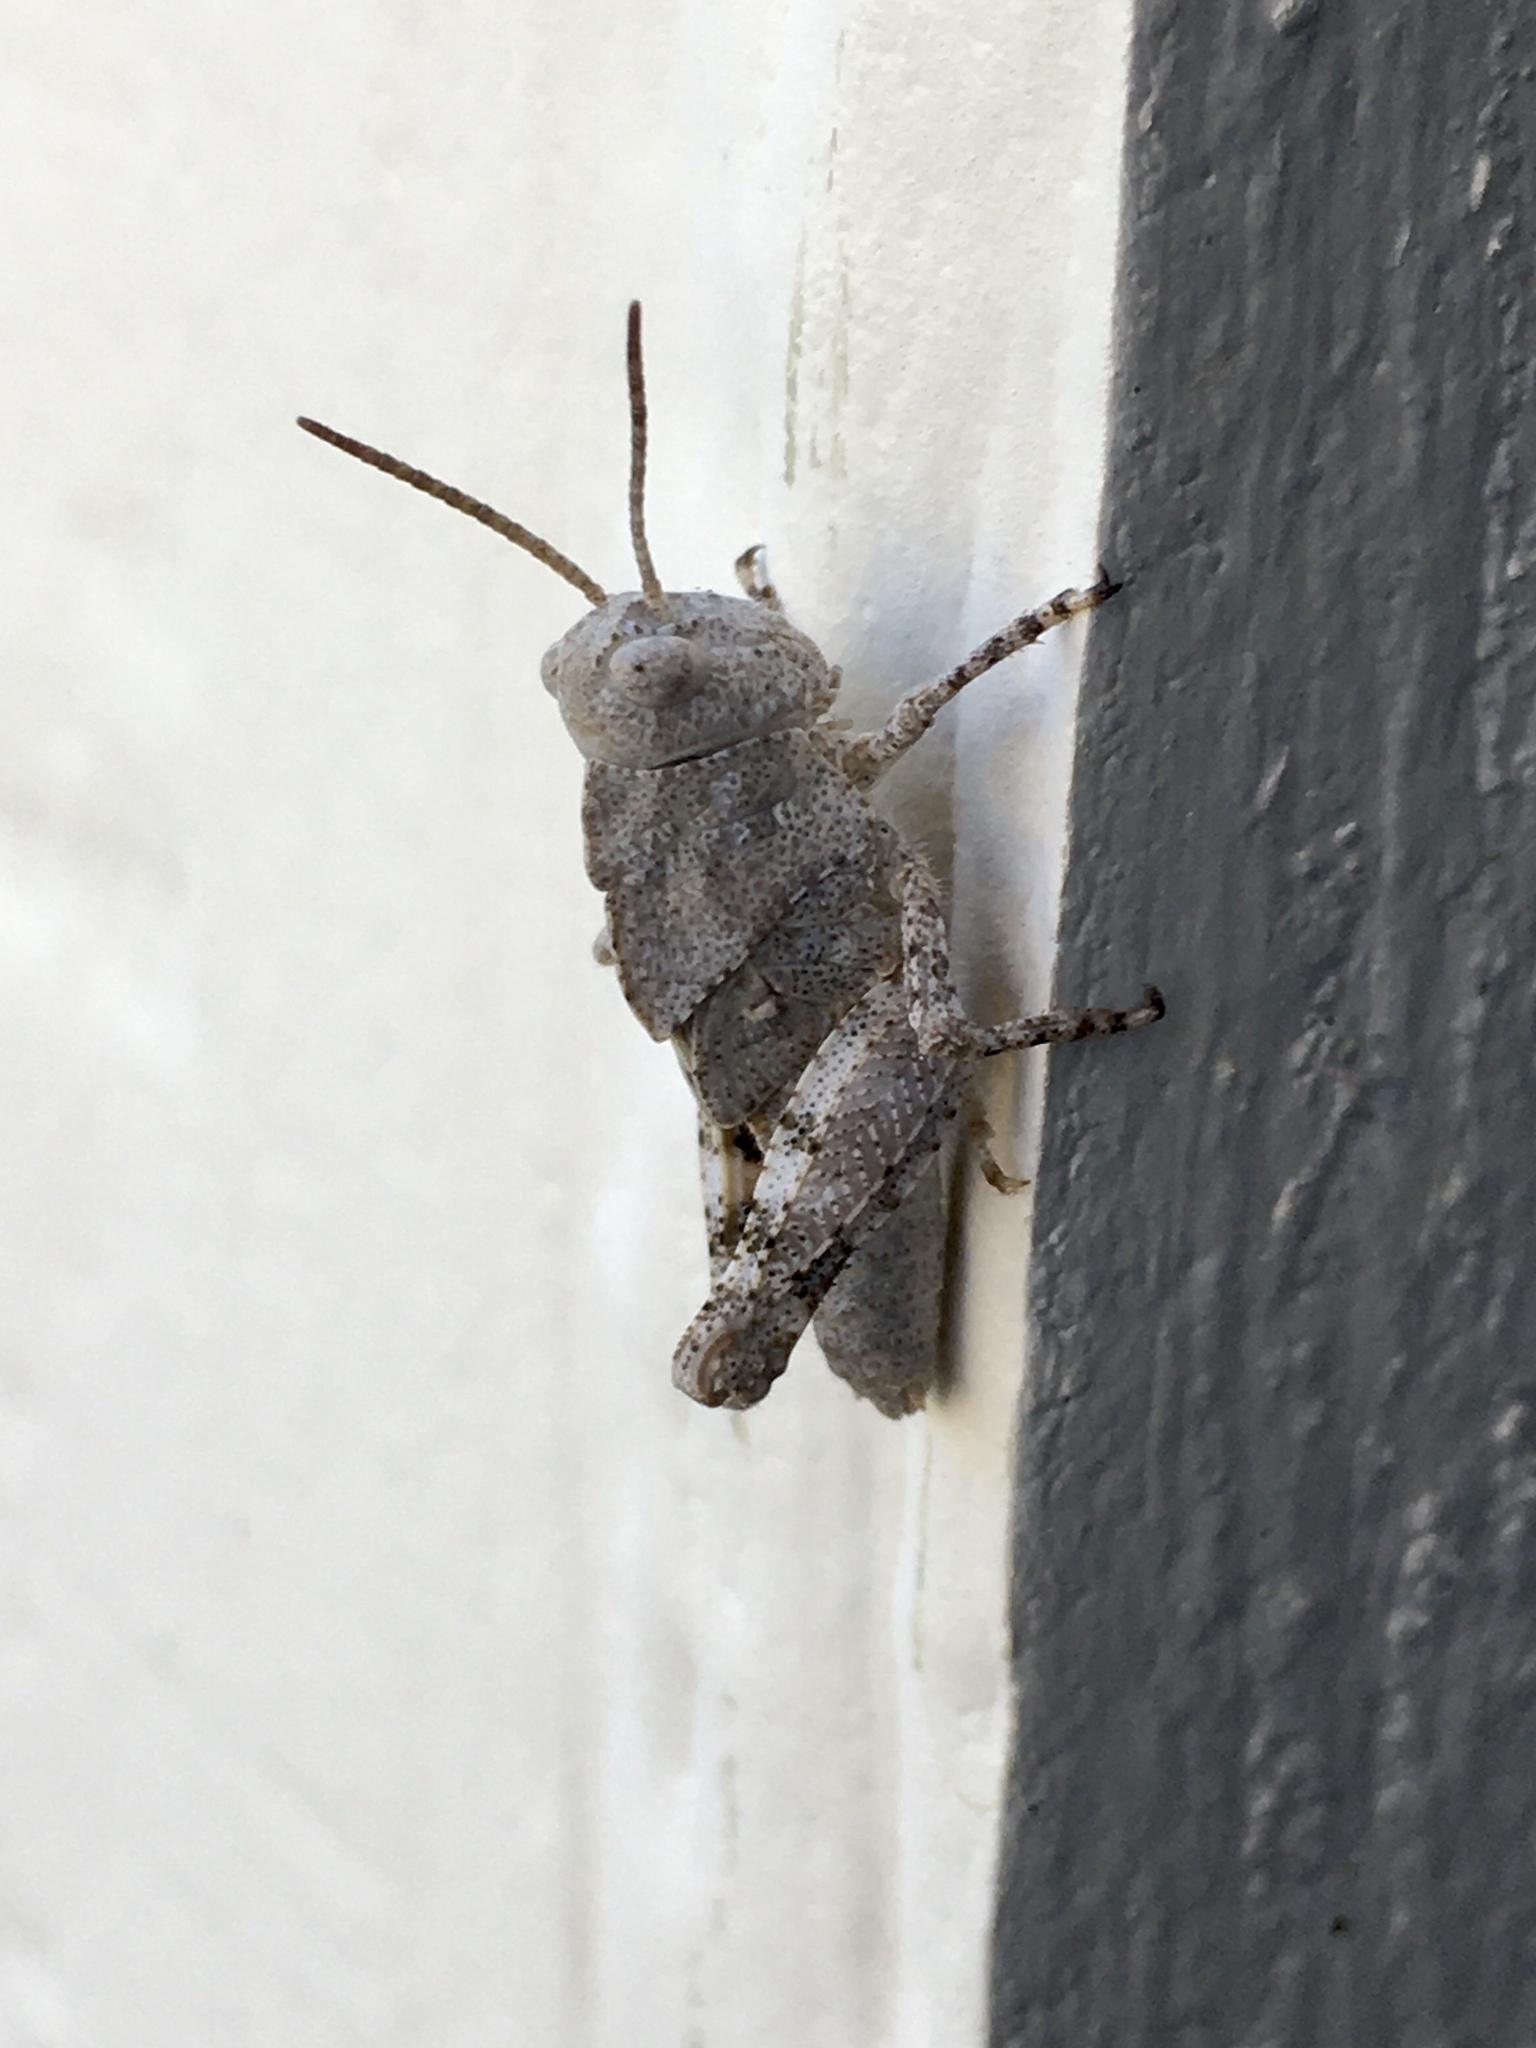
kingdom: Animalia
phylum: Arthropoda
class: Insecta
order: Orthoptera
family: Acrididae
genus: Dissosteira
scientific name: Dissosteira carolina
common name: Carolina grasshopper
